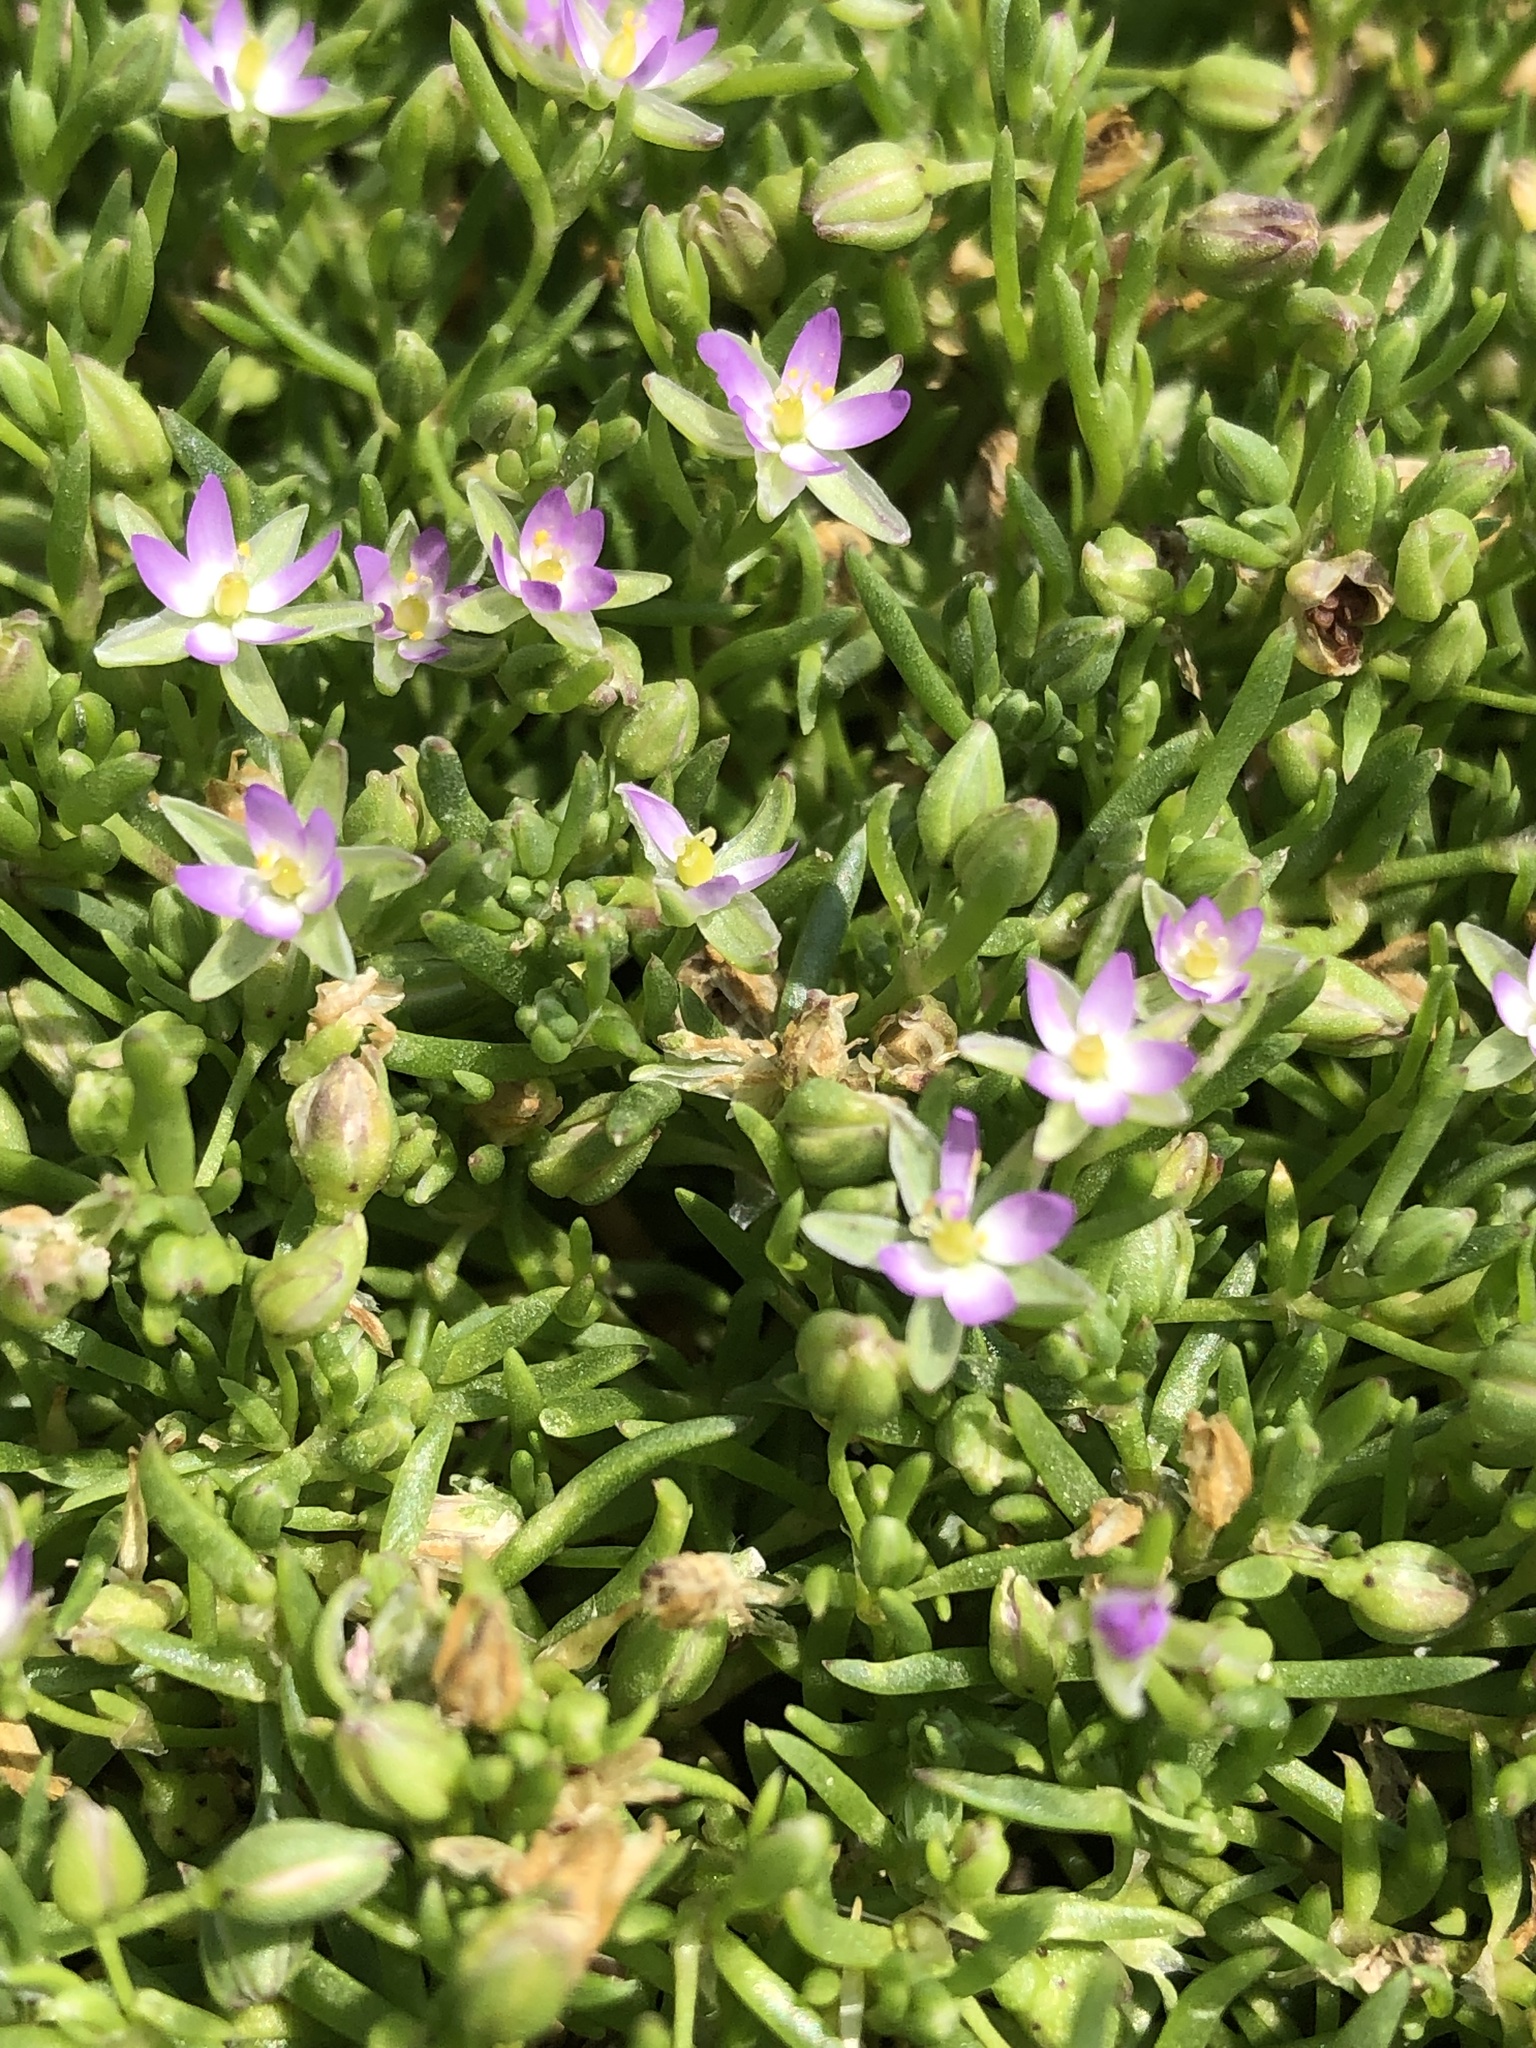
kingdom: Plantae
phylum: Tracheophyta
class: Magnoliopsida
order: Caryophyllales
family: Caryophyllaceae
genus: Spergularia
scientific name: Spergularia canadensis
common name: Canada sand-spurrey
